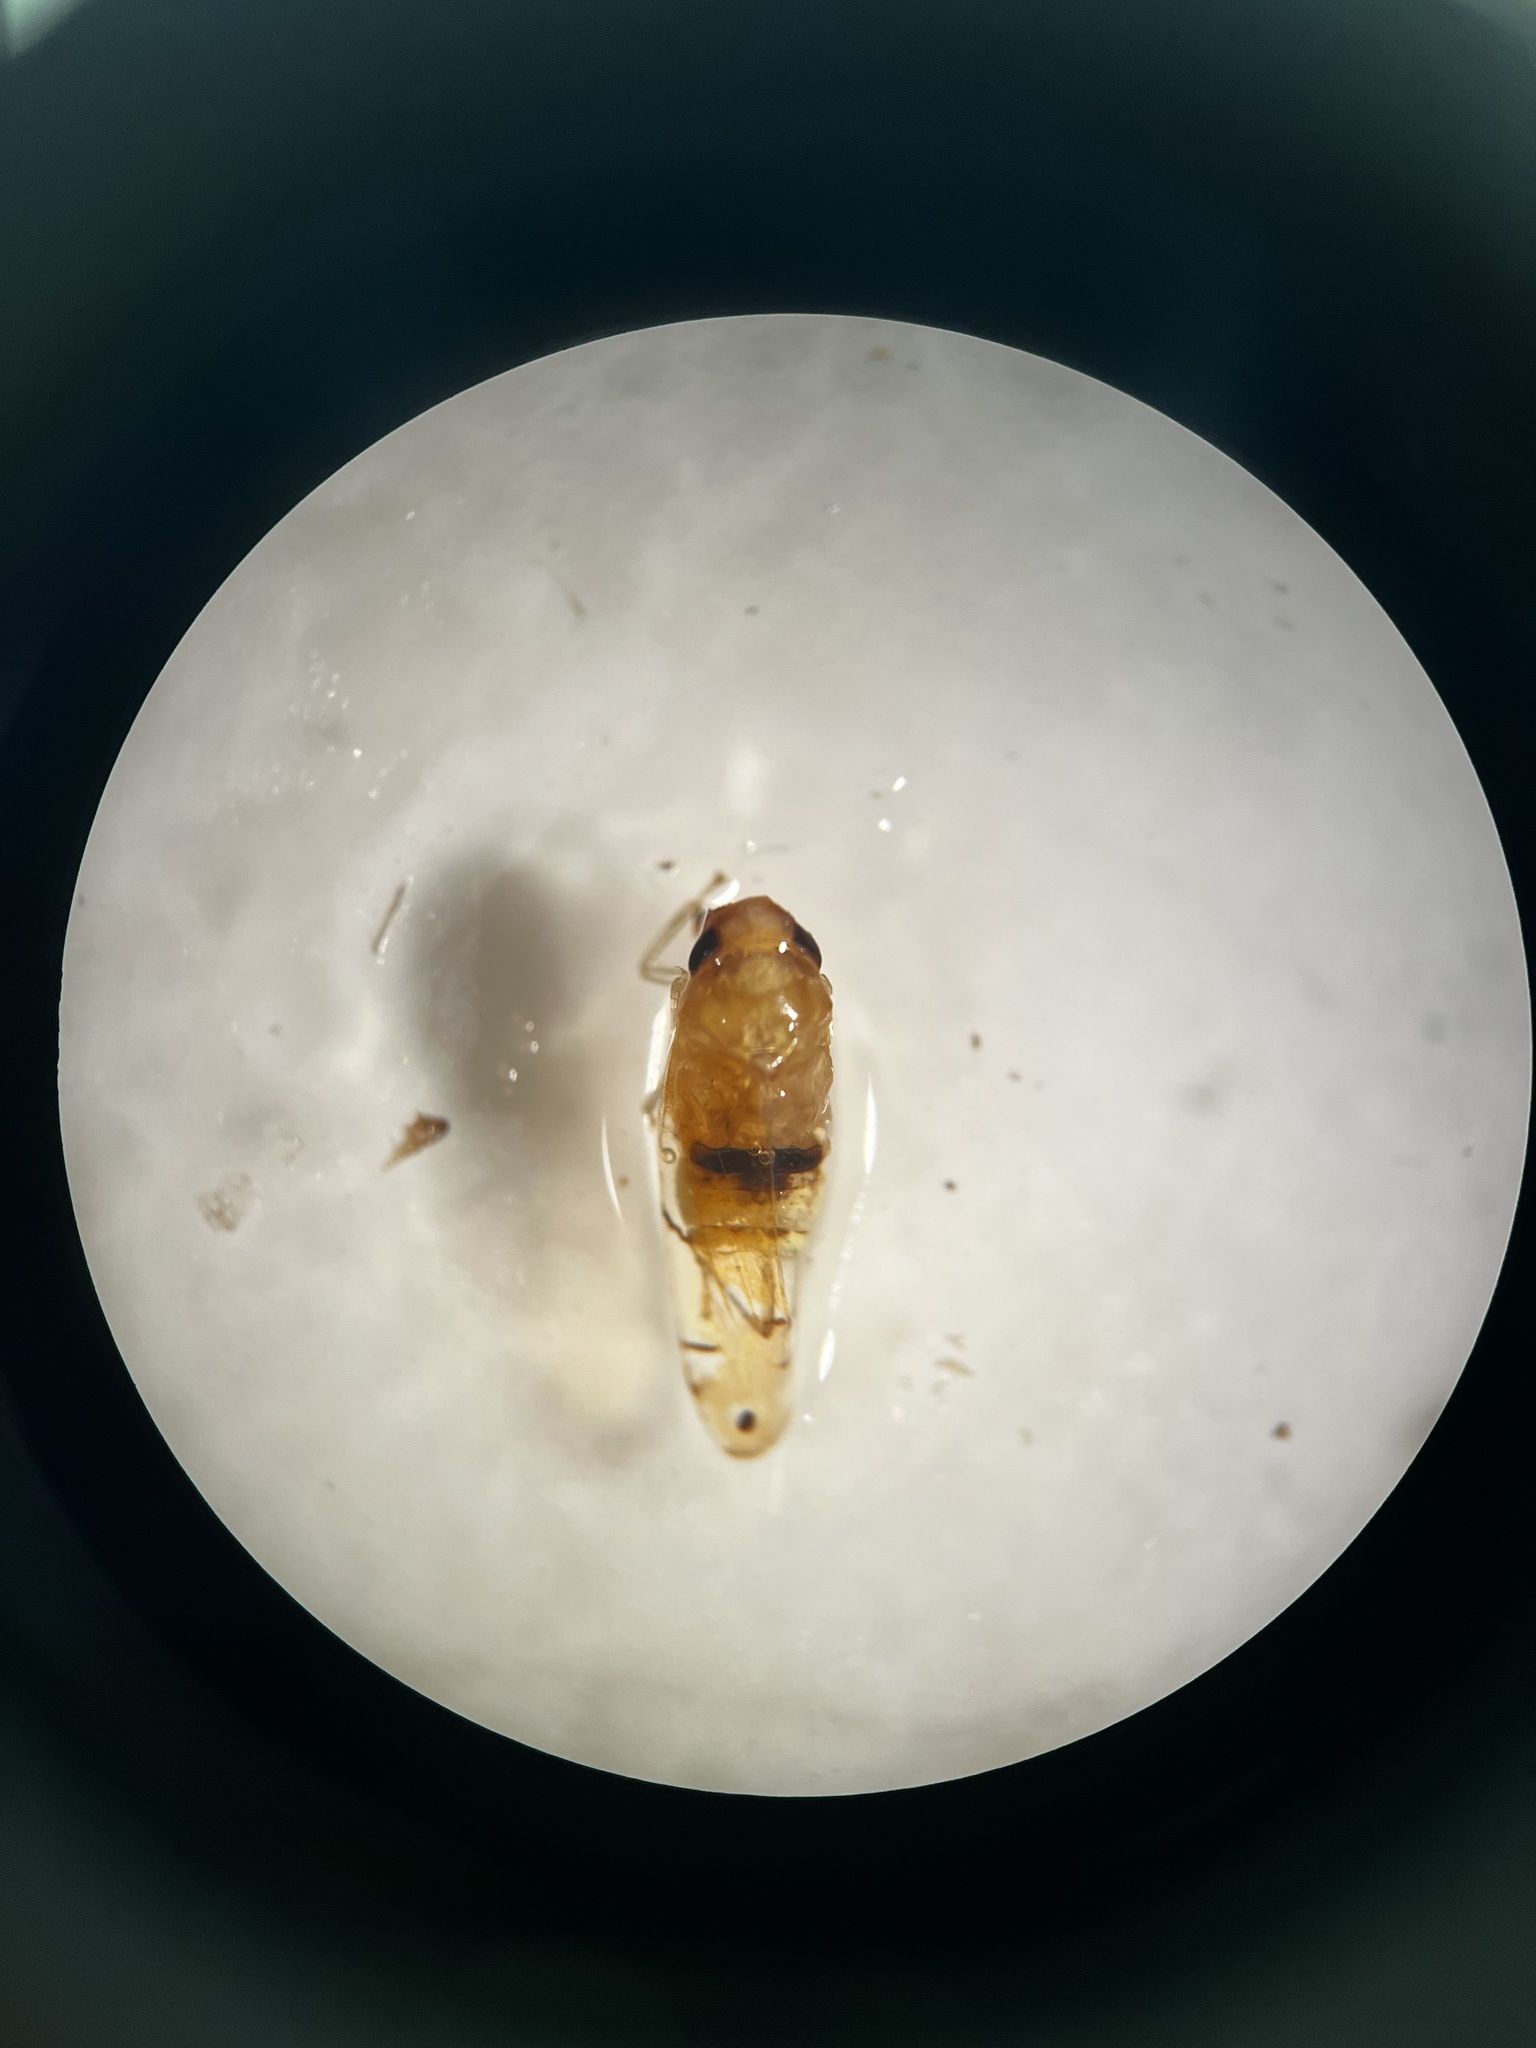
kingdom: Animalia
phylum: Arthropoda
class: Insecta
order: Hemiptera
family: Cicadellidae
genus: Eurhadina
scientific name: Eurhadina pulchella
